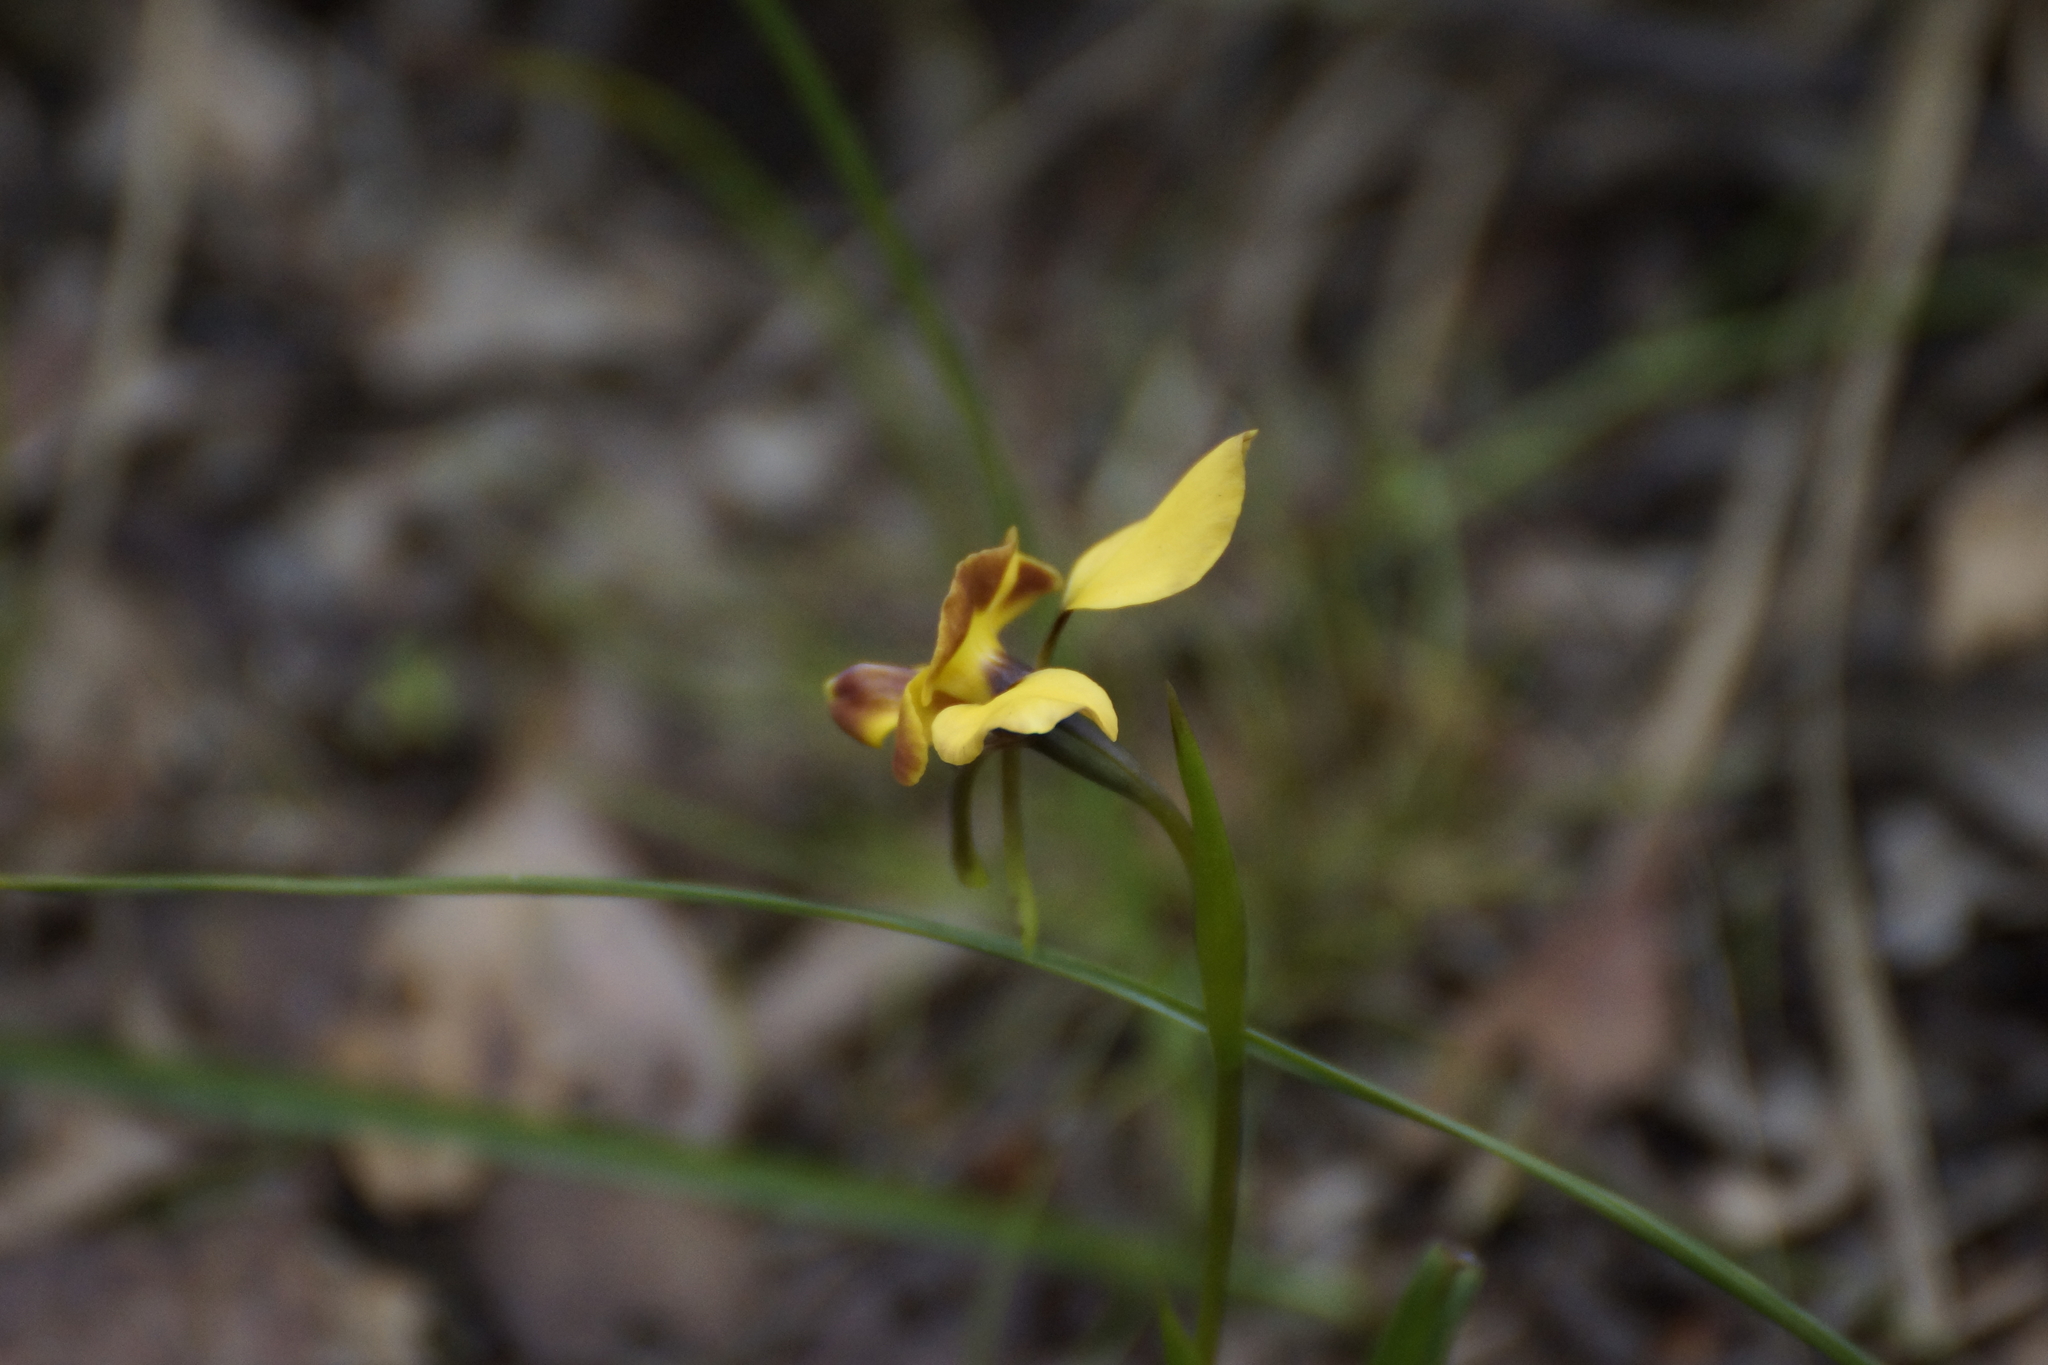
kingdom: Plantae
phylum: Tracheophyta
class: Liliopsida
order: Asparagales
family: Orchidaceae
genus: Diuris
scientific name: Diuris orientis
